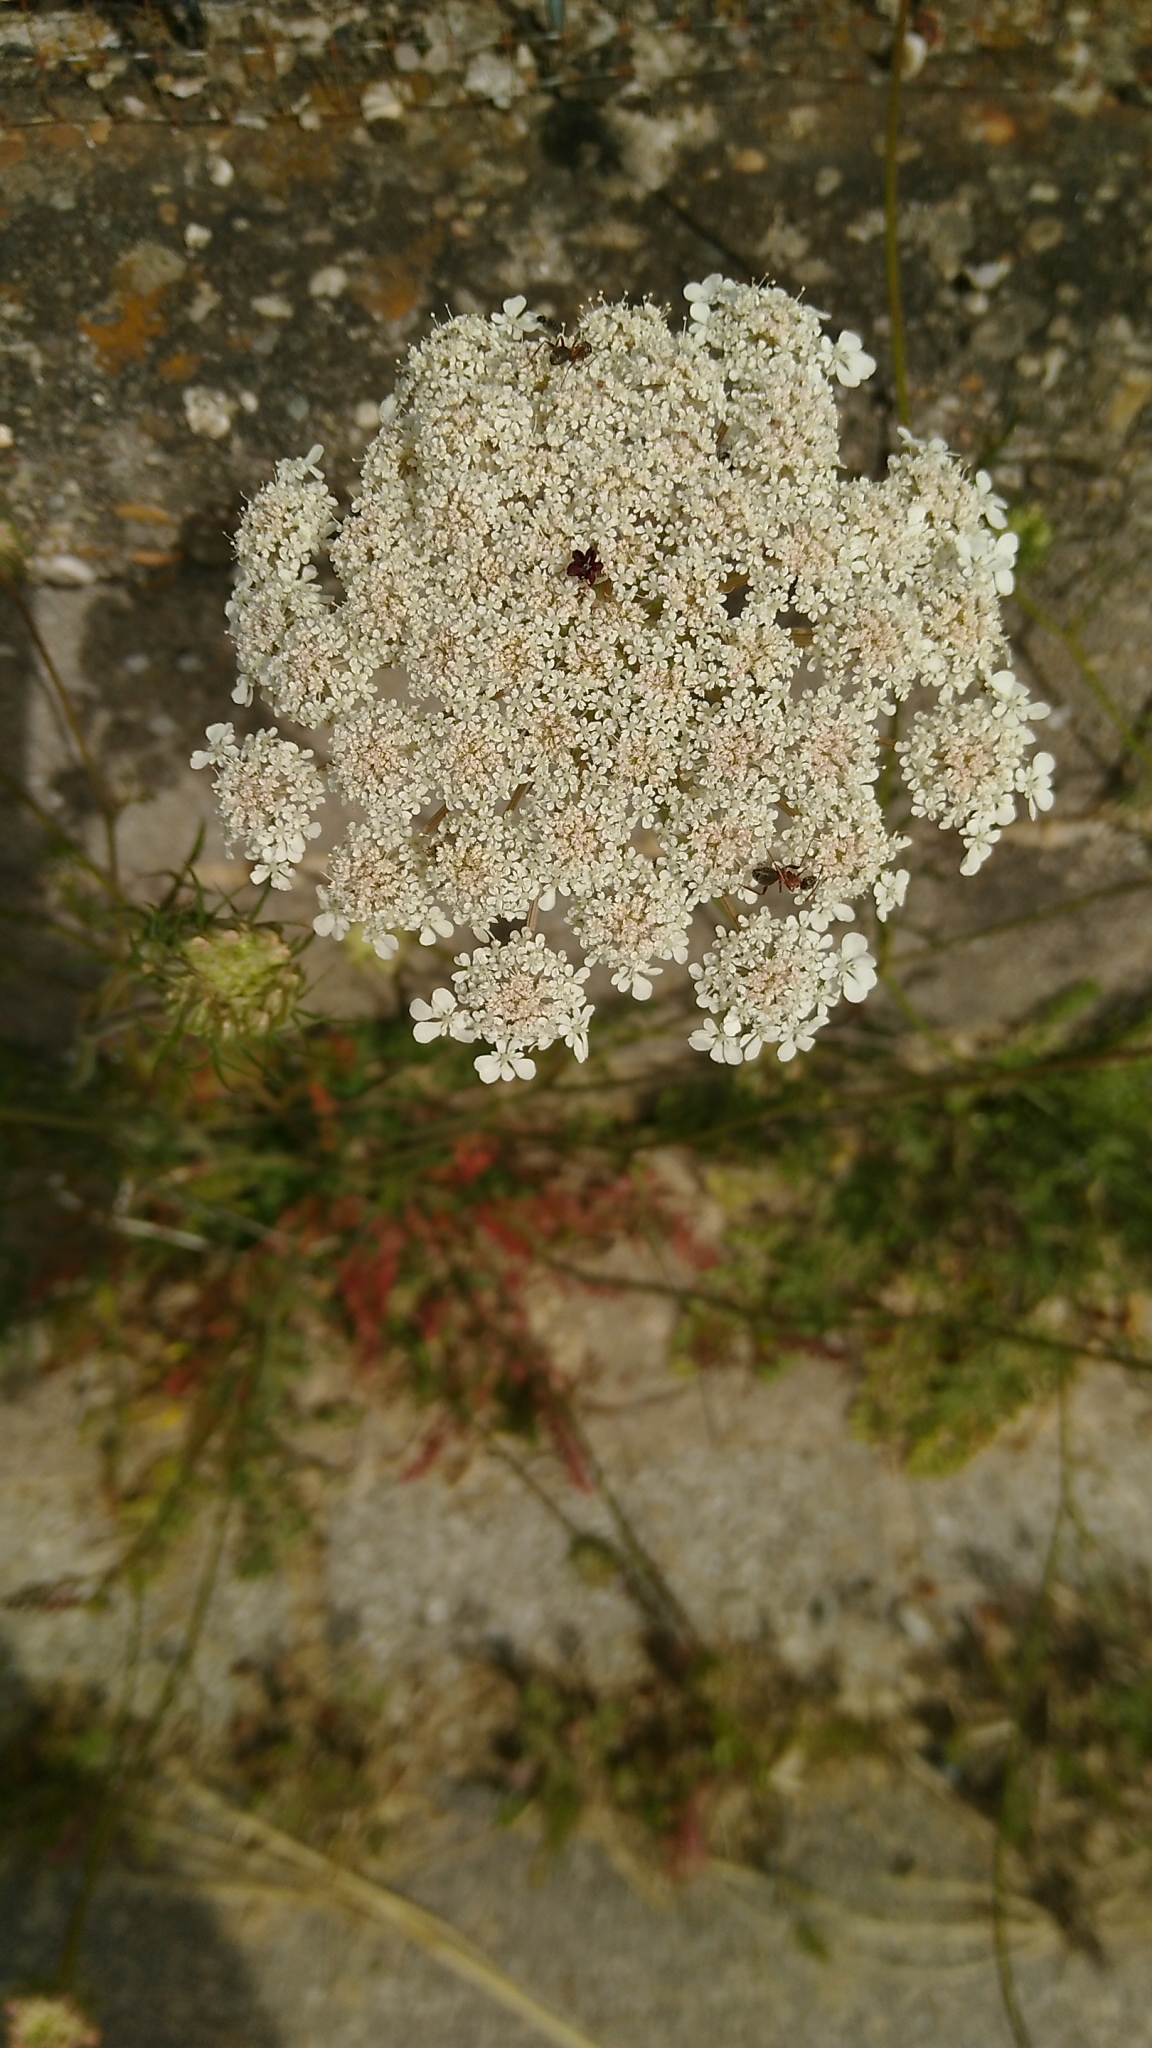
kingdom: Plantae
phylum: Tracheophyta
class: Magnoliopsida
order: Apiales
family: Apiaceae
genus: Daucus
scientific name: Daucus carota
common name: Wild carrot
